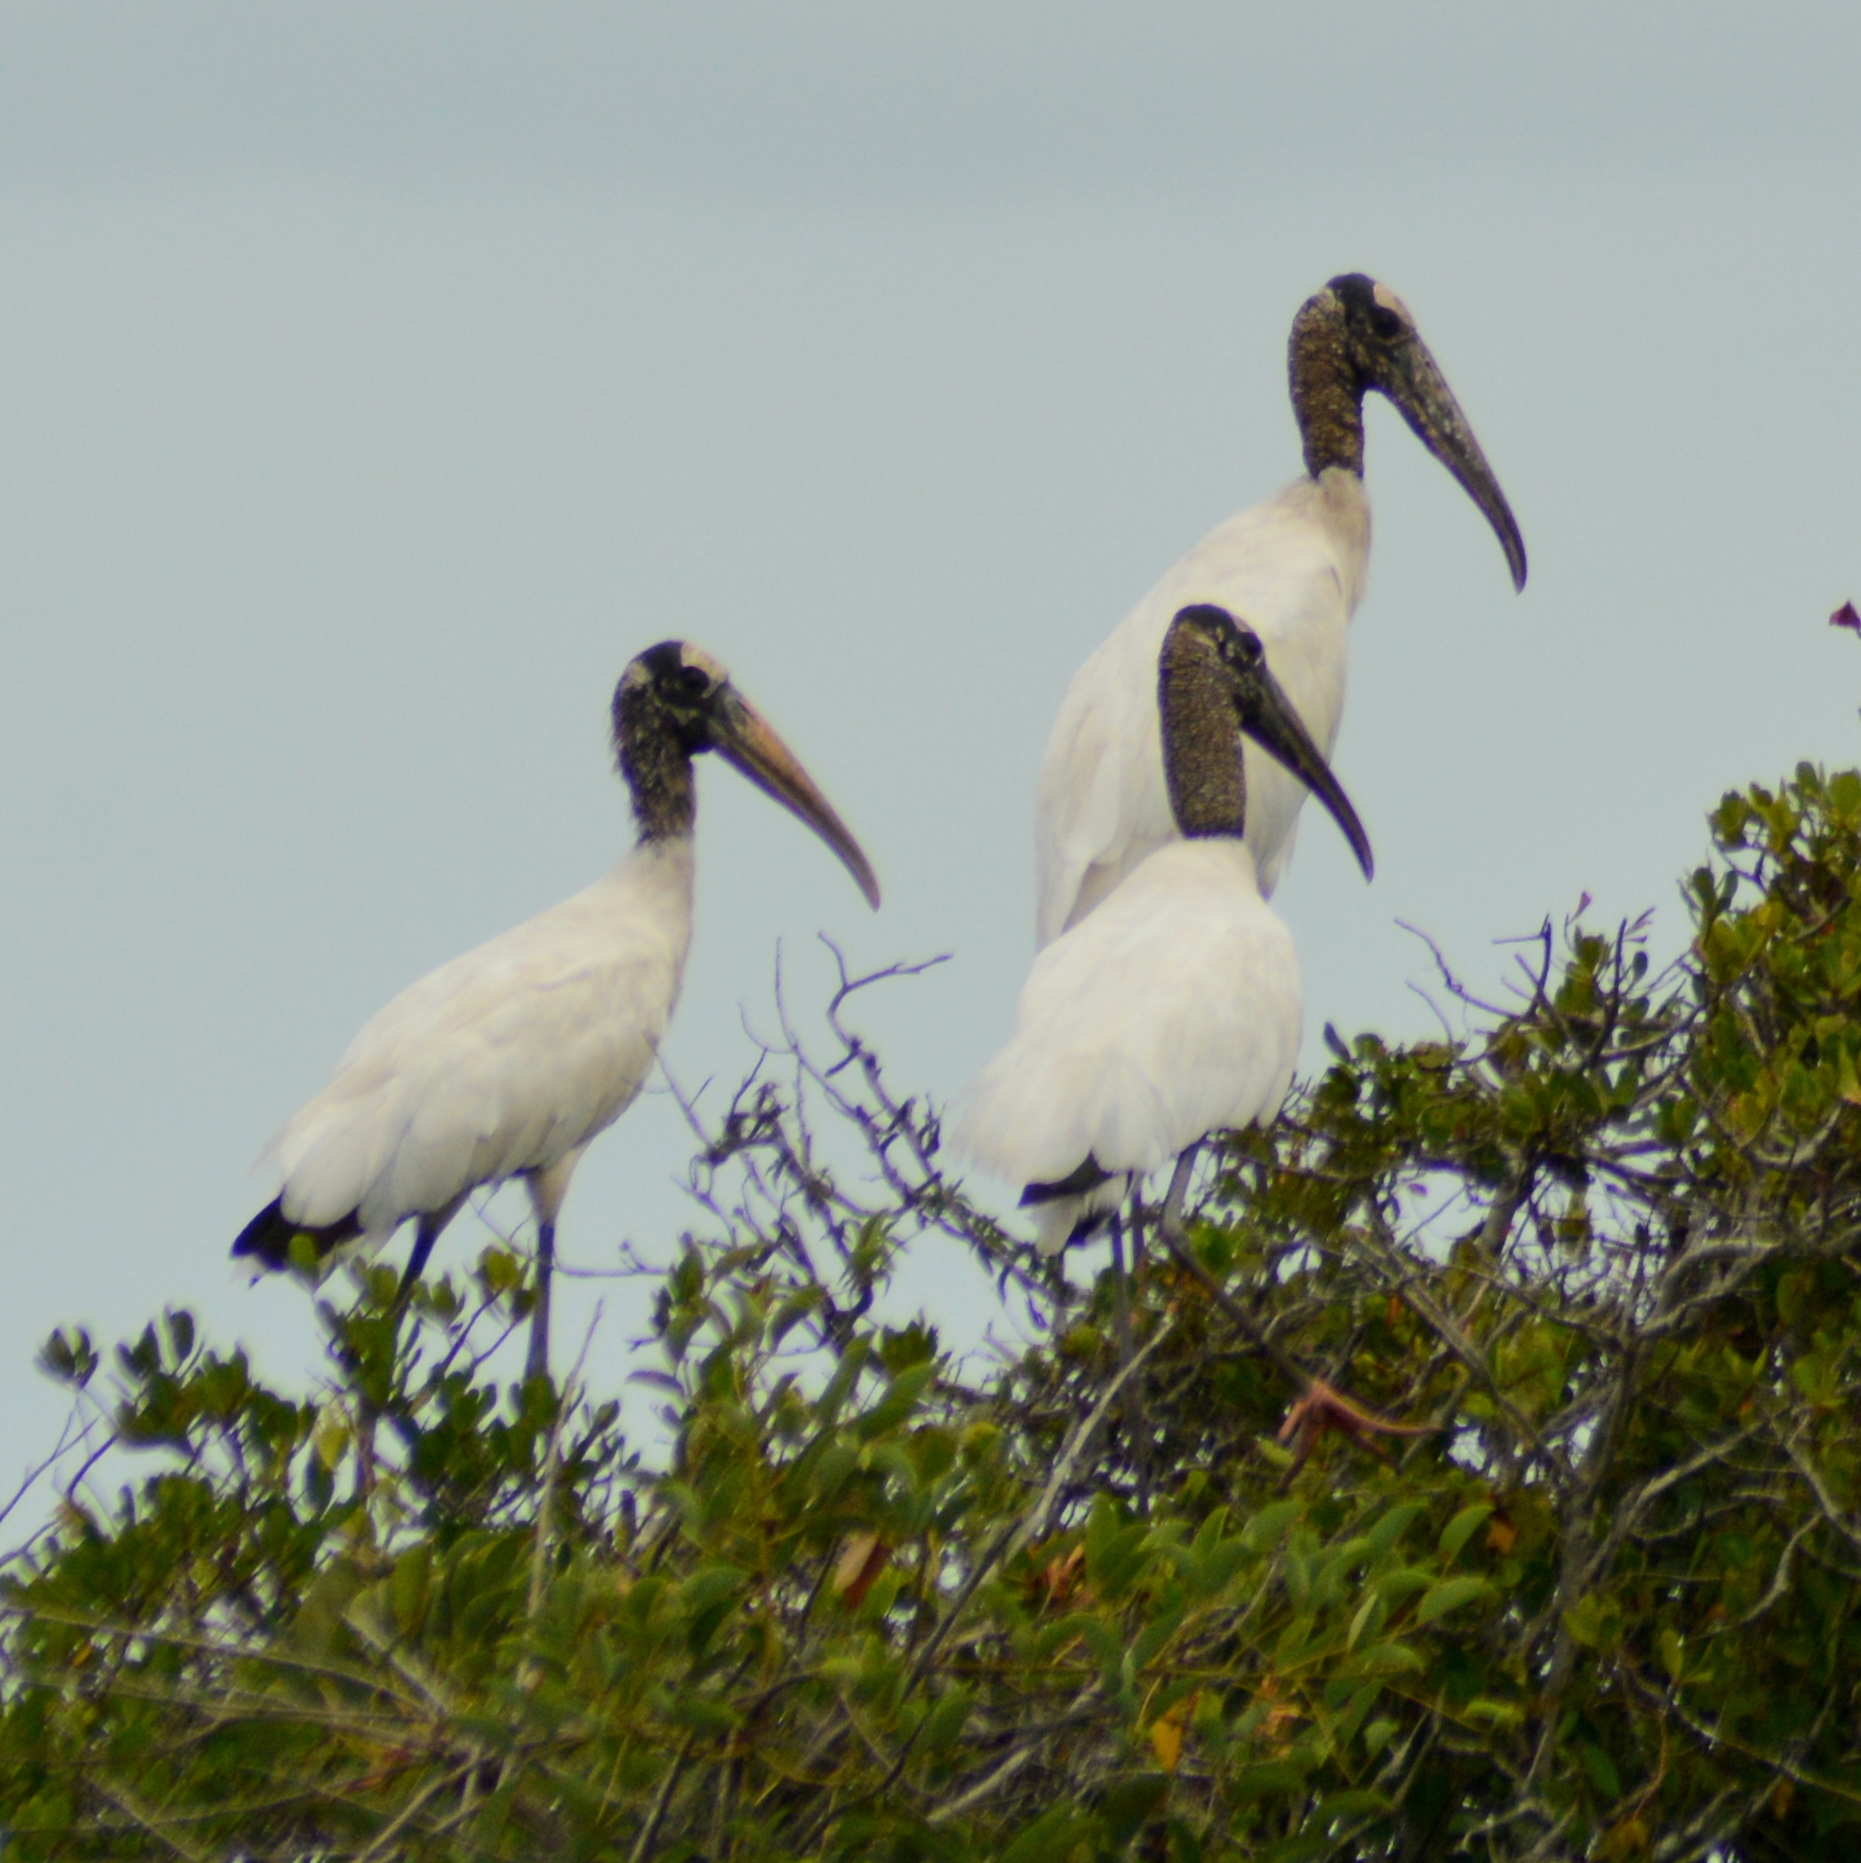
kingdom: Animalia
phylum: Chordata
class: Aves
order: Ciconiiformes
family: Ciconiidae
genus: Mycteria
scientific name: Mycteria americana
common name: Wood stork
